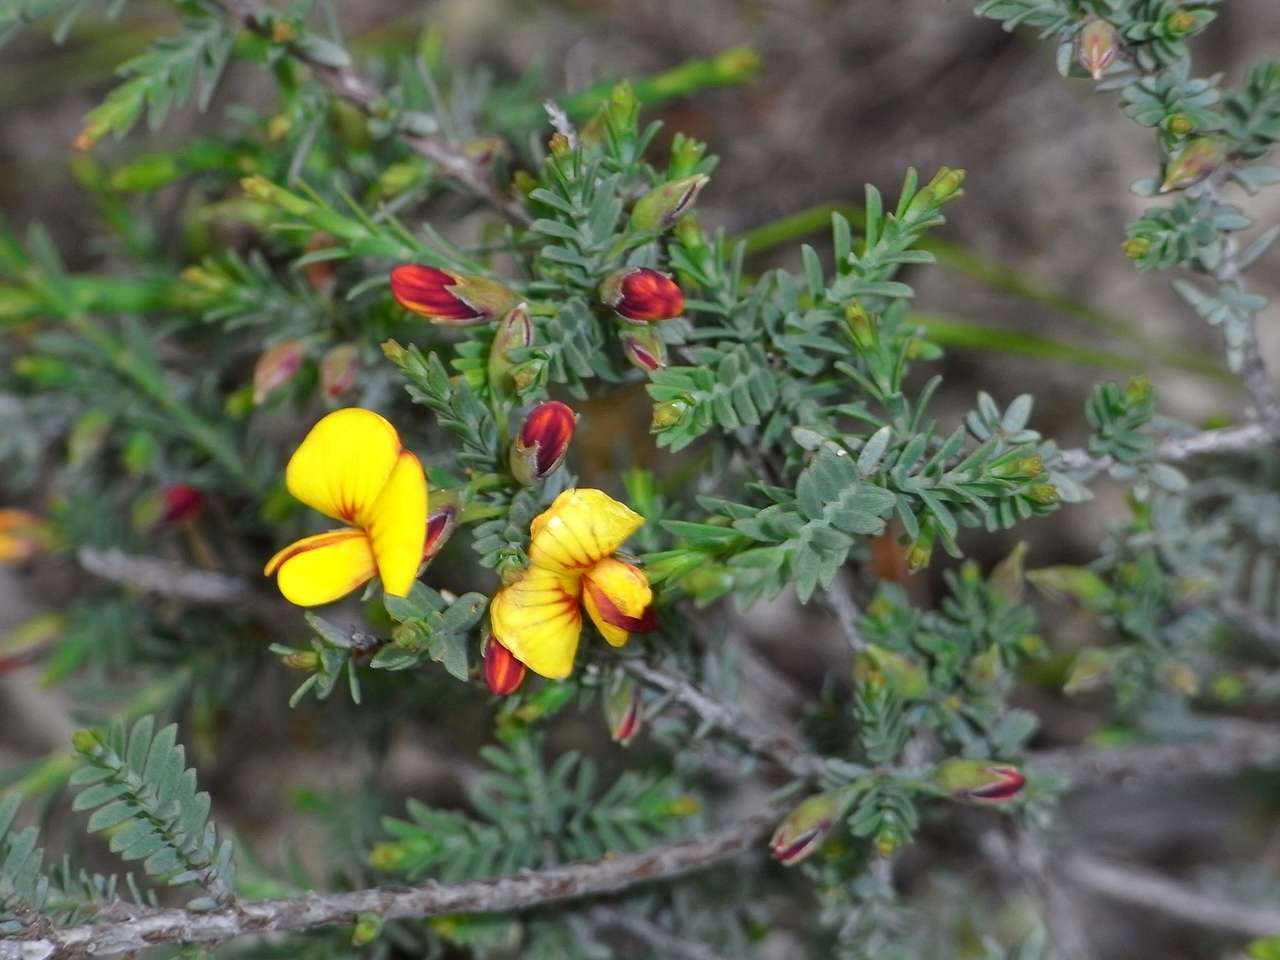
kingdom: Plantae
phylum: Tracheophyta
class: Magnoliopsida
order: Fabales
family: Fabaceae
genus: Eutaxia
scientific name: Eutaxia microphylla
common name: Mallee bush-pea
